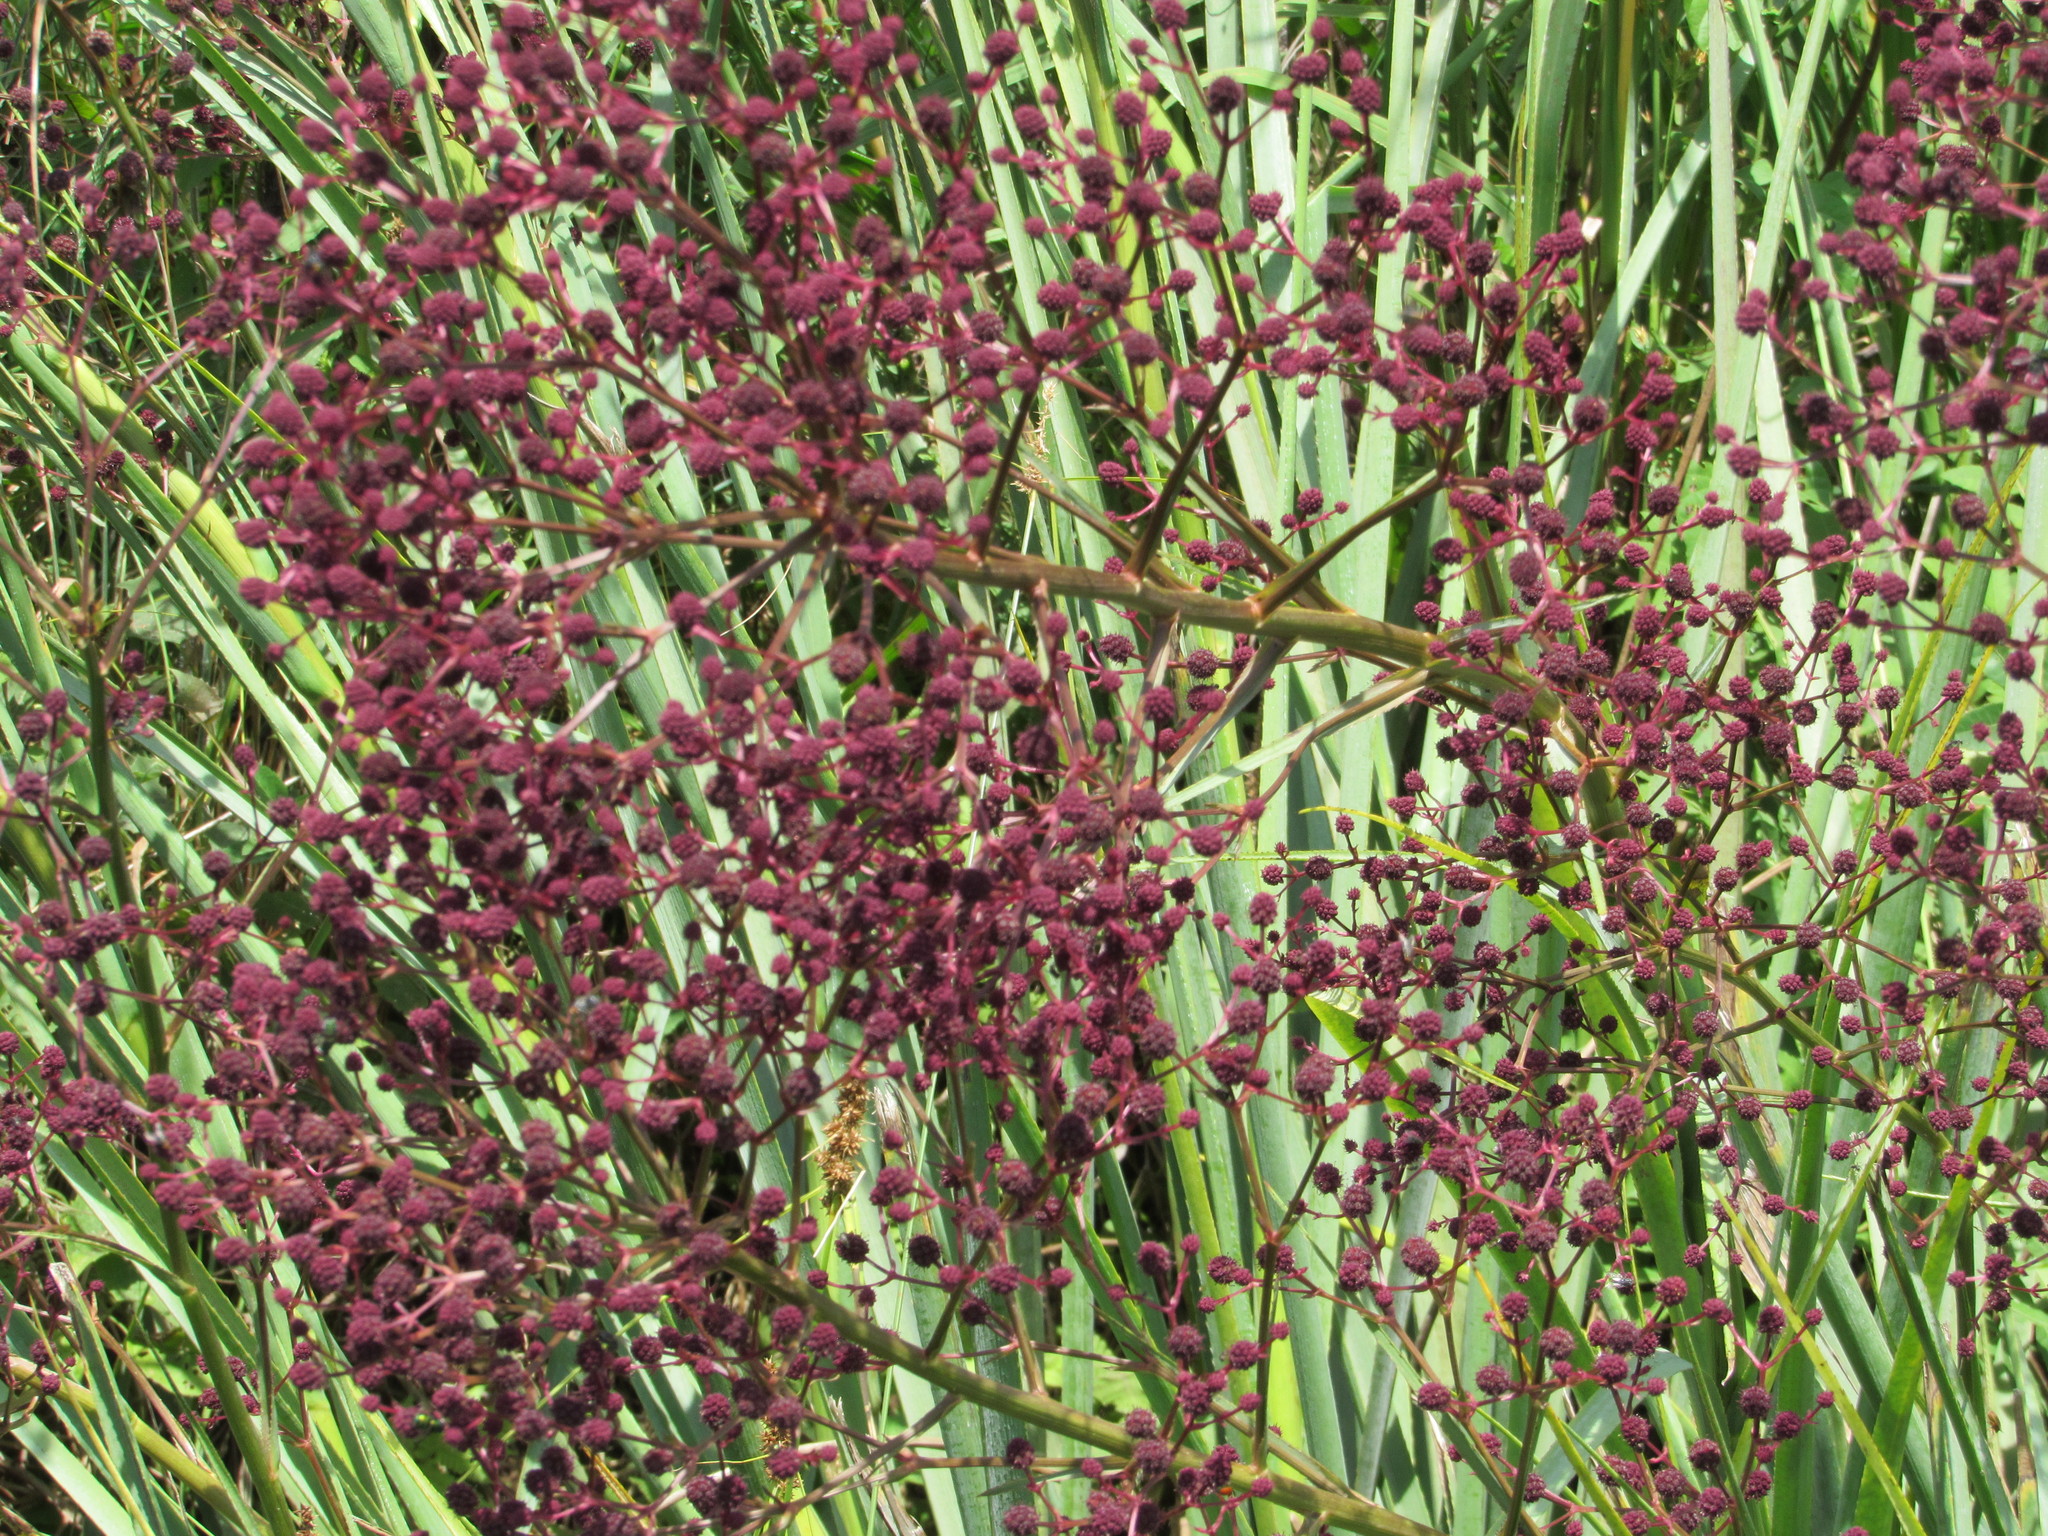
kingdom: Plantae
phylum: Tracheophyta
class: Magnoliopsida
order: Apiales
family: Apiaceae
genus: Eryngium
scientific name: Eryngium pandanifolium
